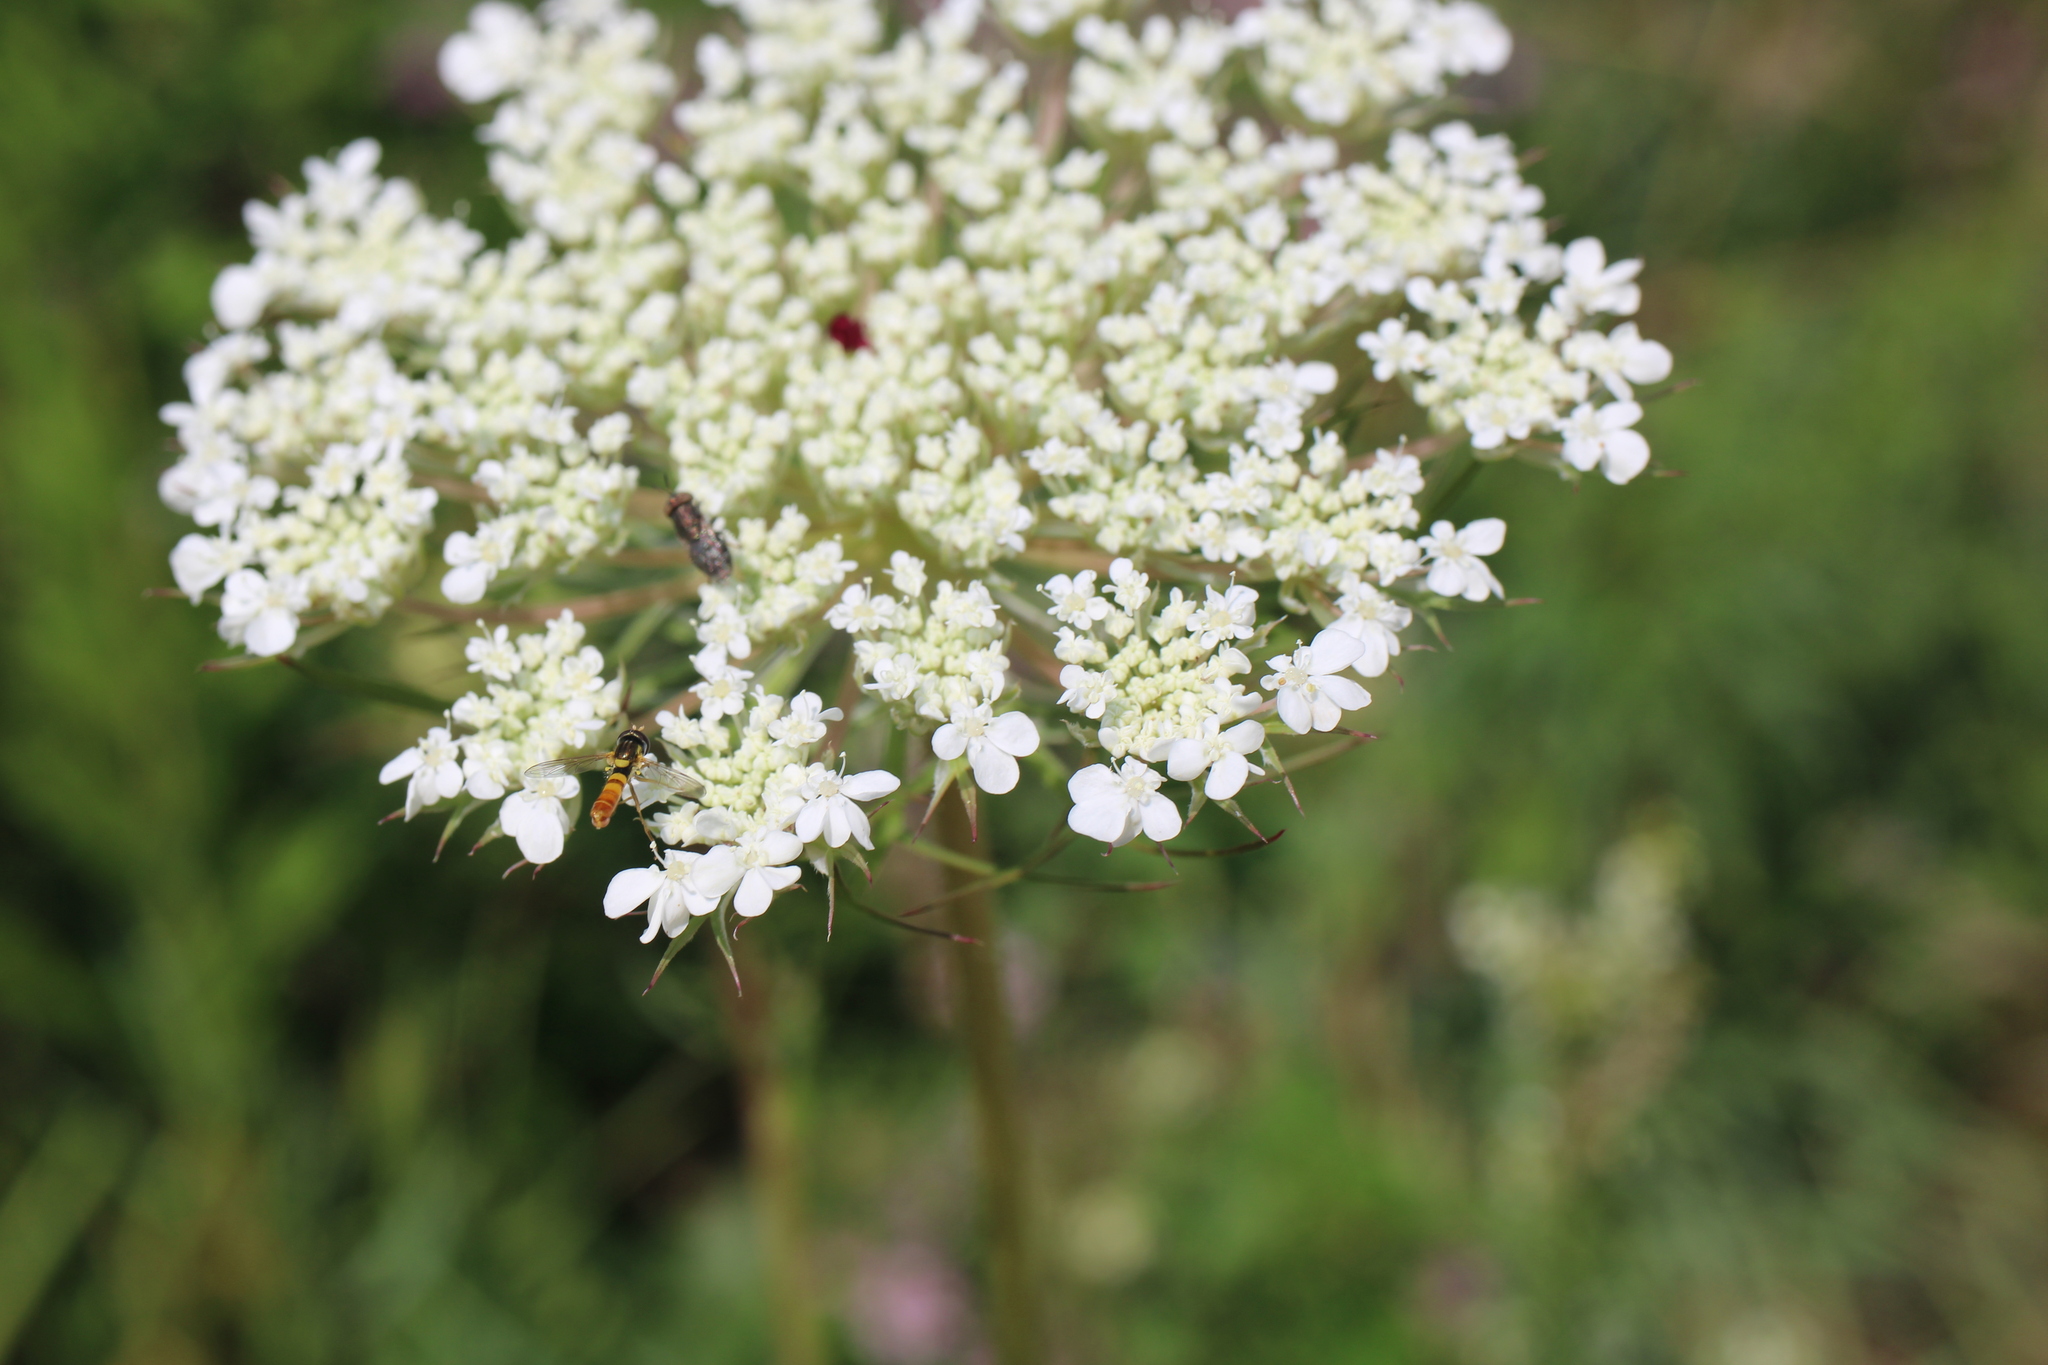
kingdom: Animalia
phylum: Arthropoda
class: Insecta
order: Diptera
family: Syrphidae
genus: Sphaerophoria
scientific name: Sphaerophoria contigua
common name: Tufted globetail
